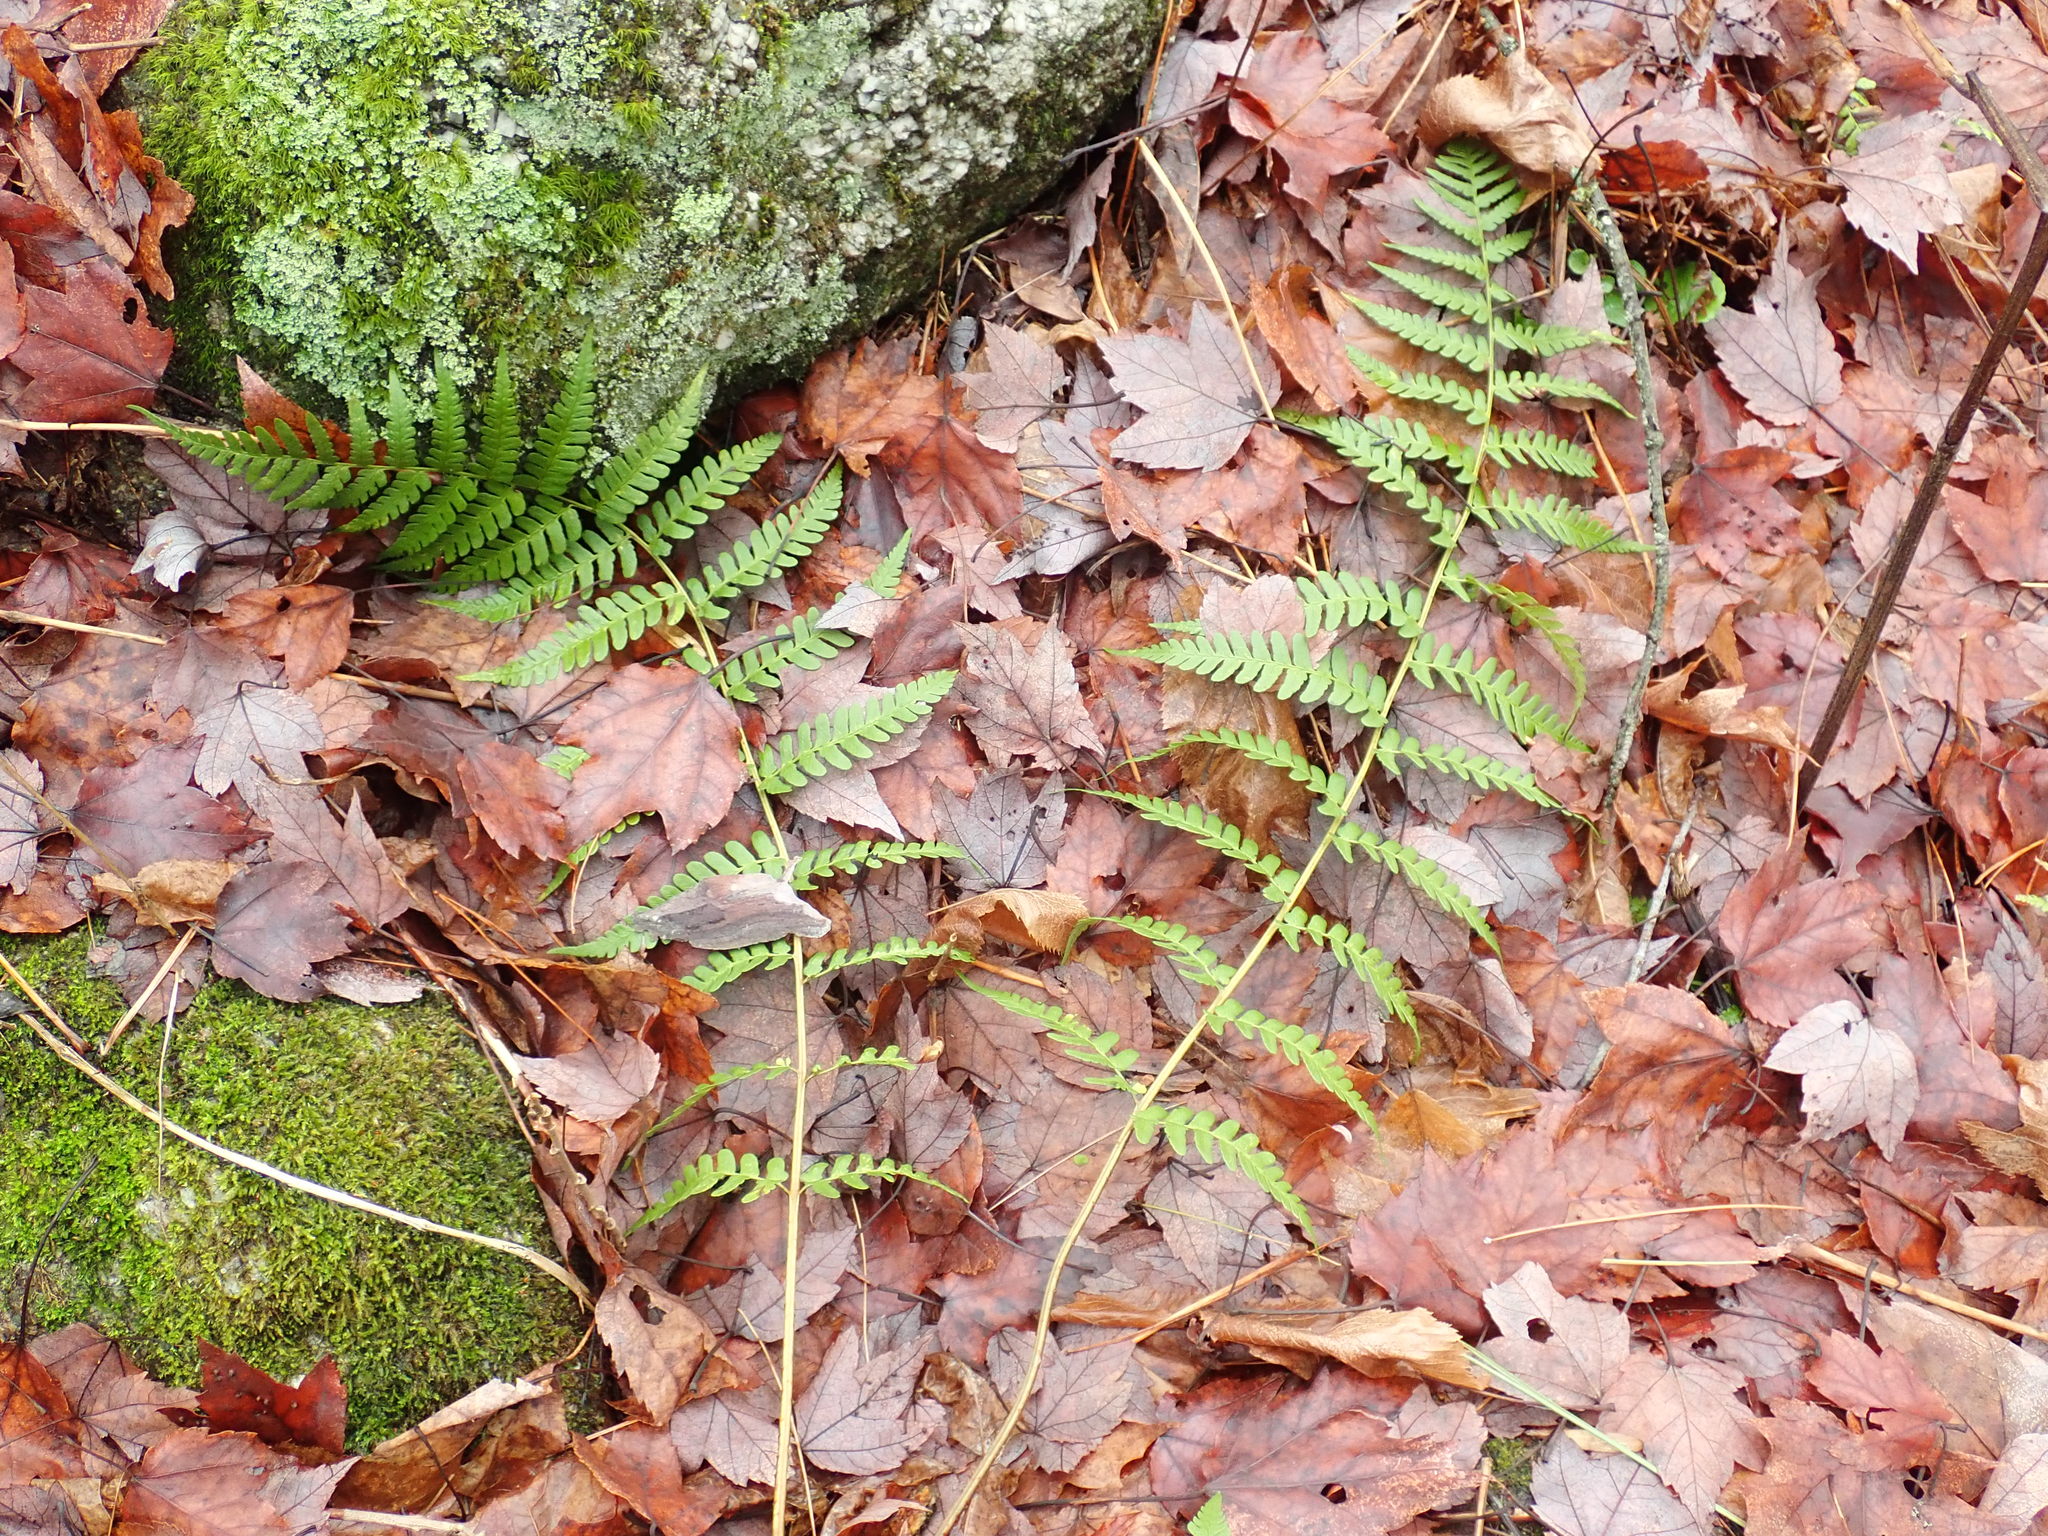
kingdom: Plantae
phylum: Tracheophyta
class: Polypodiopsida
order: Polypodiales
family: Dryopteridaceae
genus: Dryopteris
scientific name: Dryopteris marginalis
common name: Marginal wood fern
